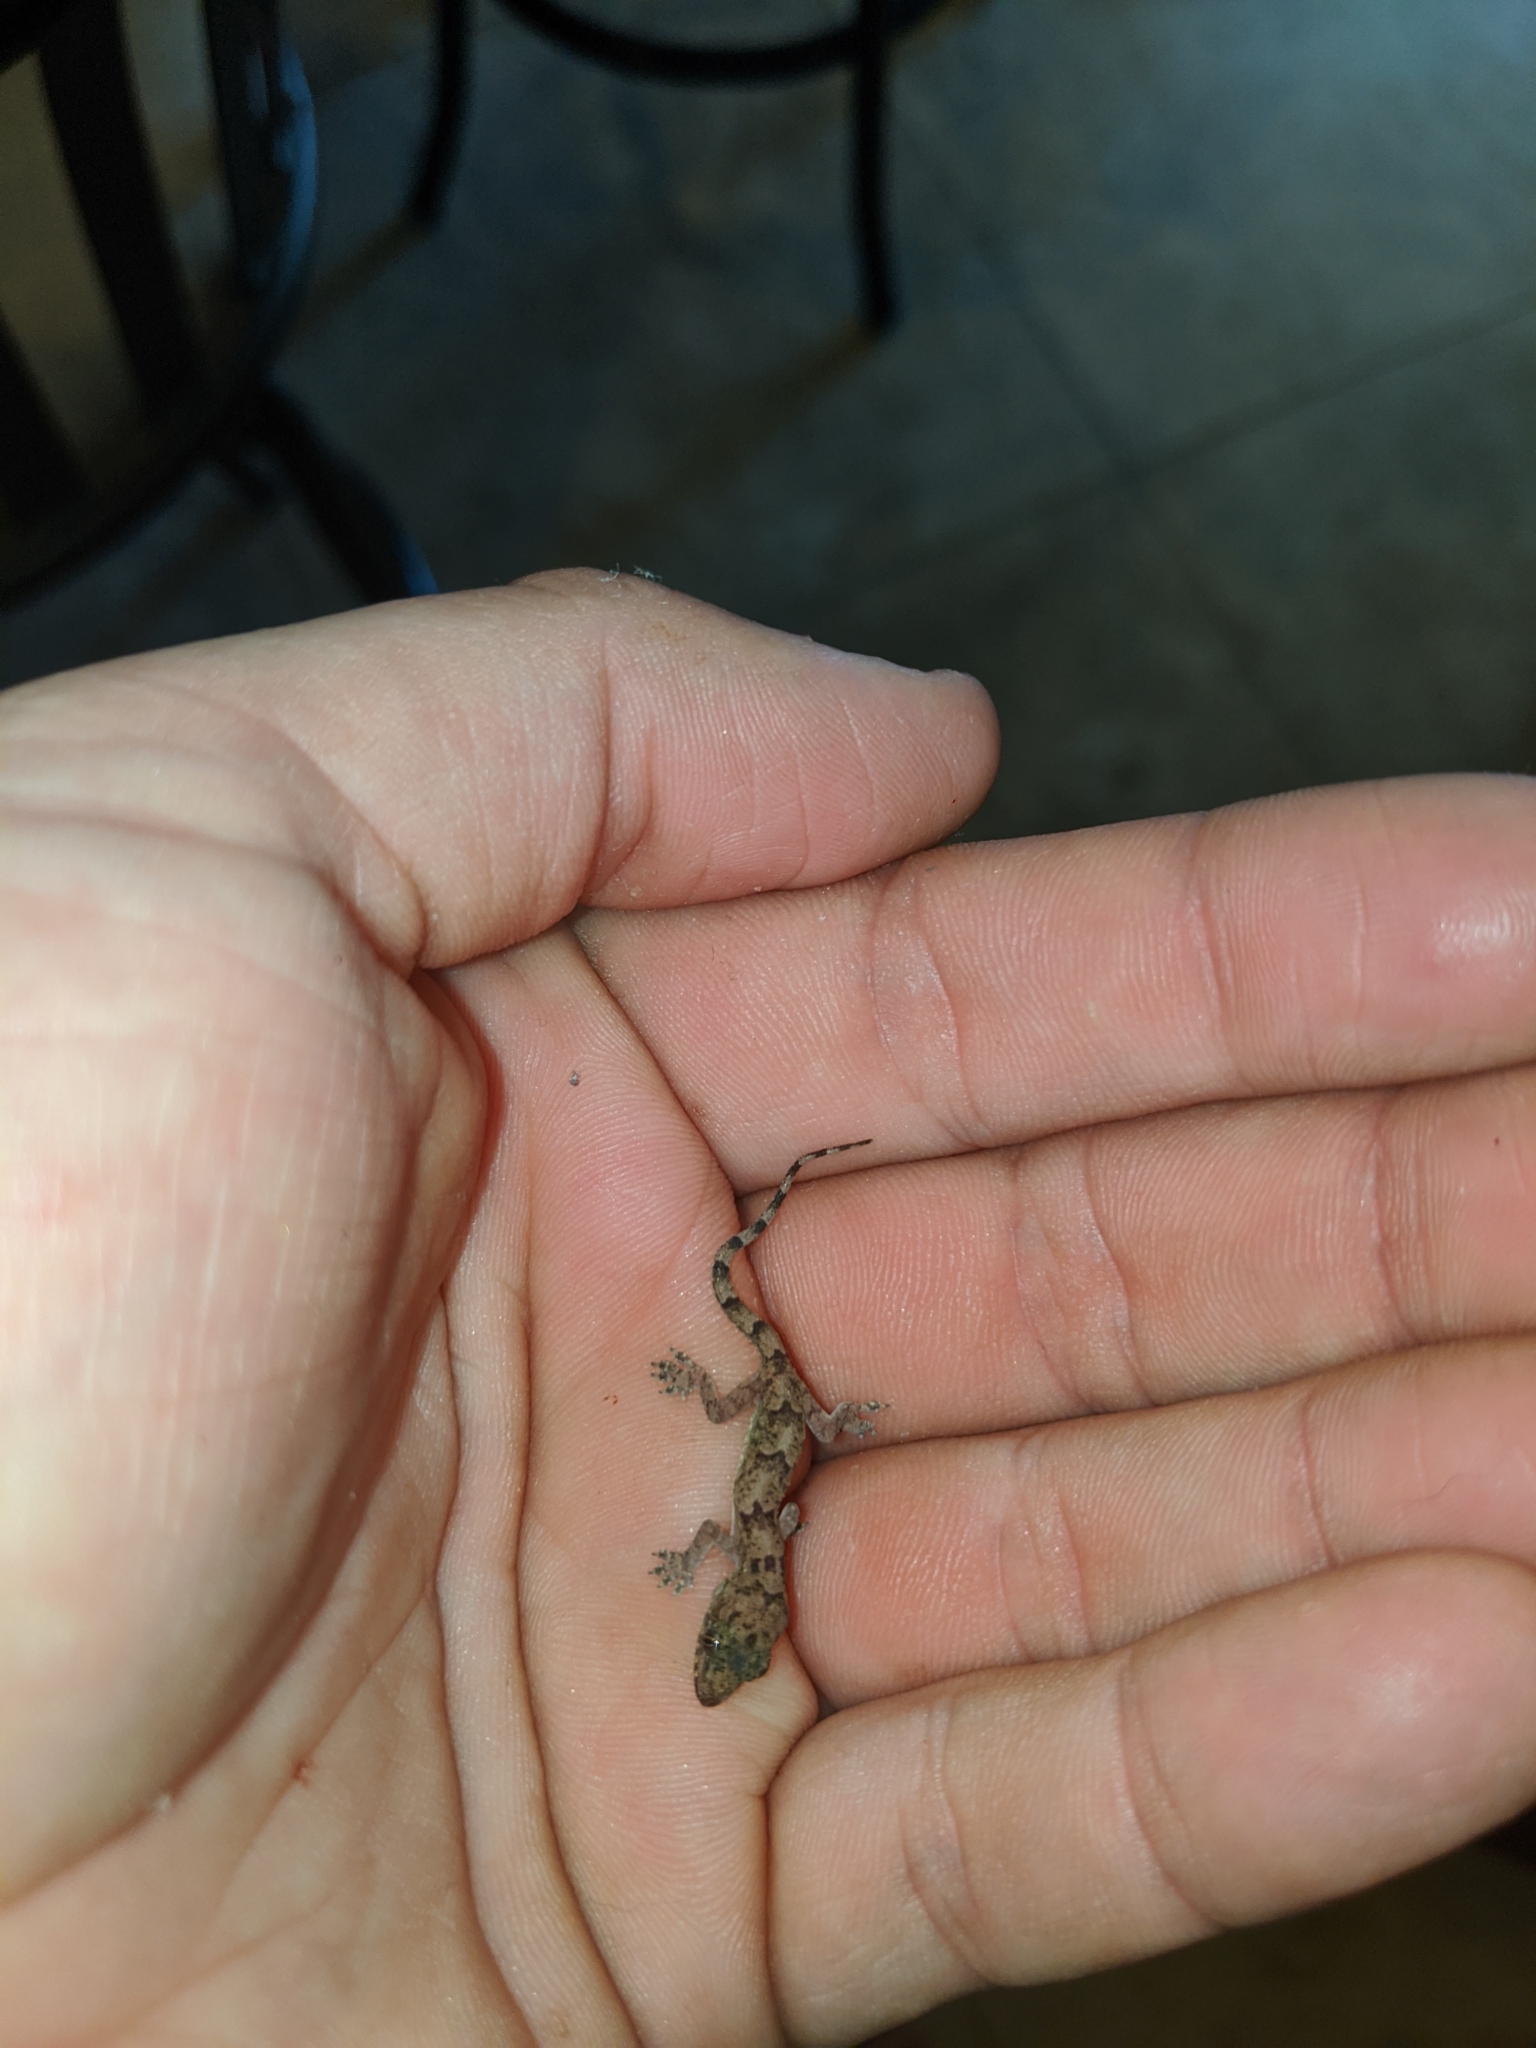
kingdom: Animalia
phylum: Chordata
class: Squamata
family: Gekkonidae
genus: Hemidactylus
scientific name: Hemidactylus mabouia
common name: House gecko
